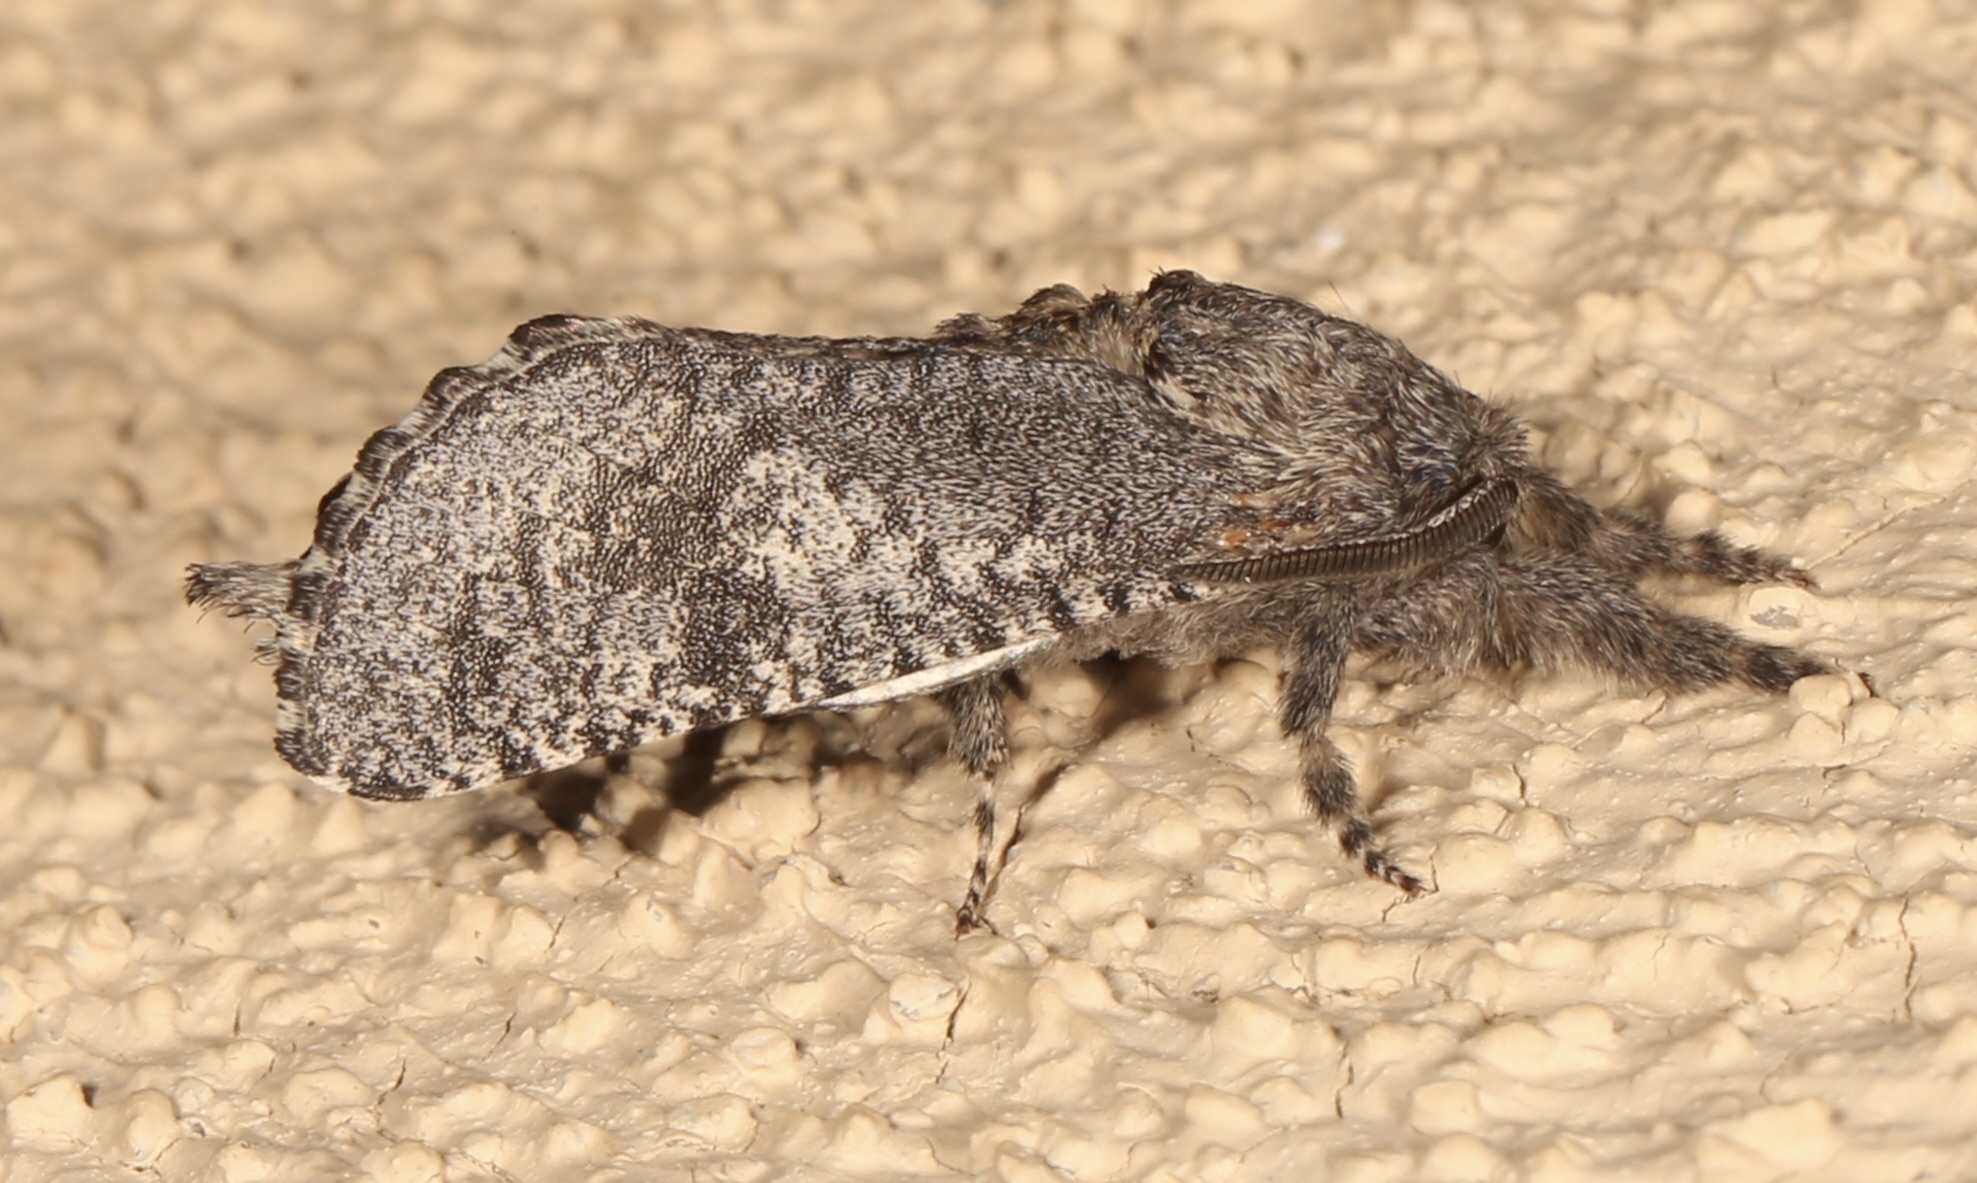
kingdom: Animalia
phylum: Arthropoda
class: Insecta
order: Lepidoptera
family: Cossidae
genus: Givira
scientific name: Givira mucidus
